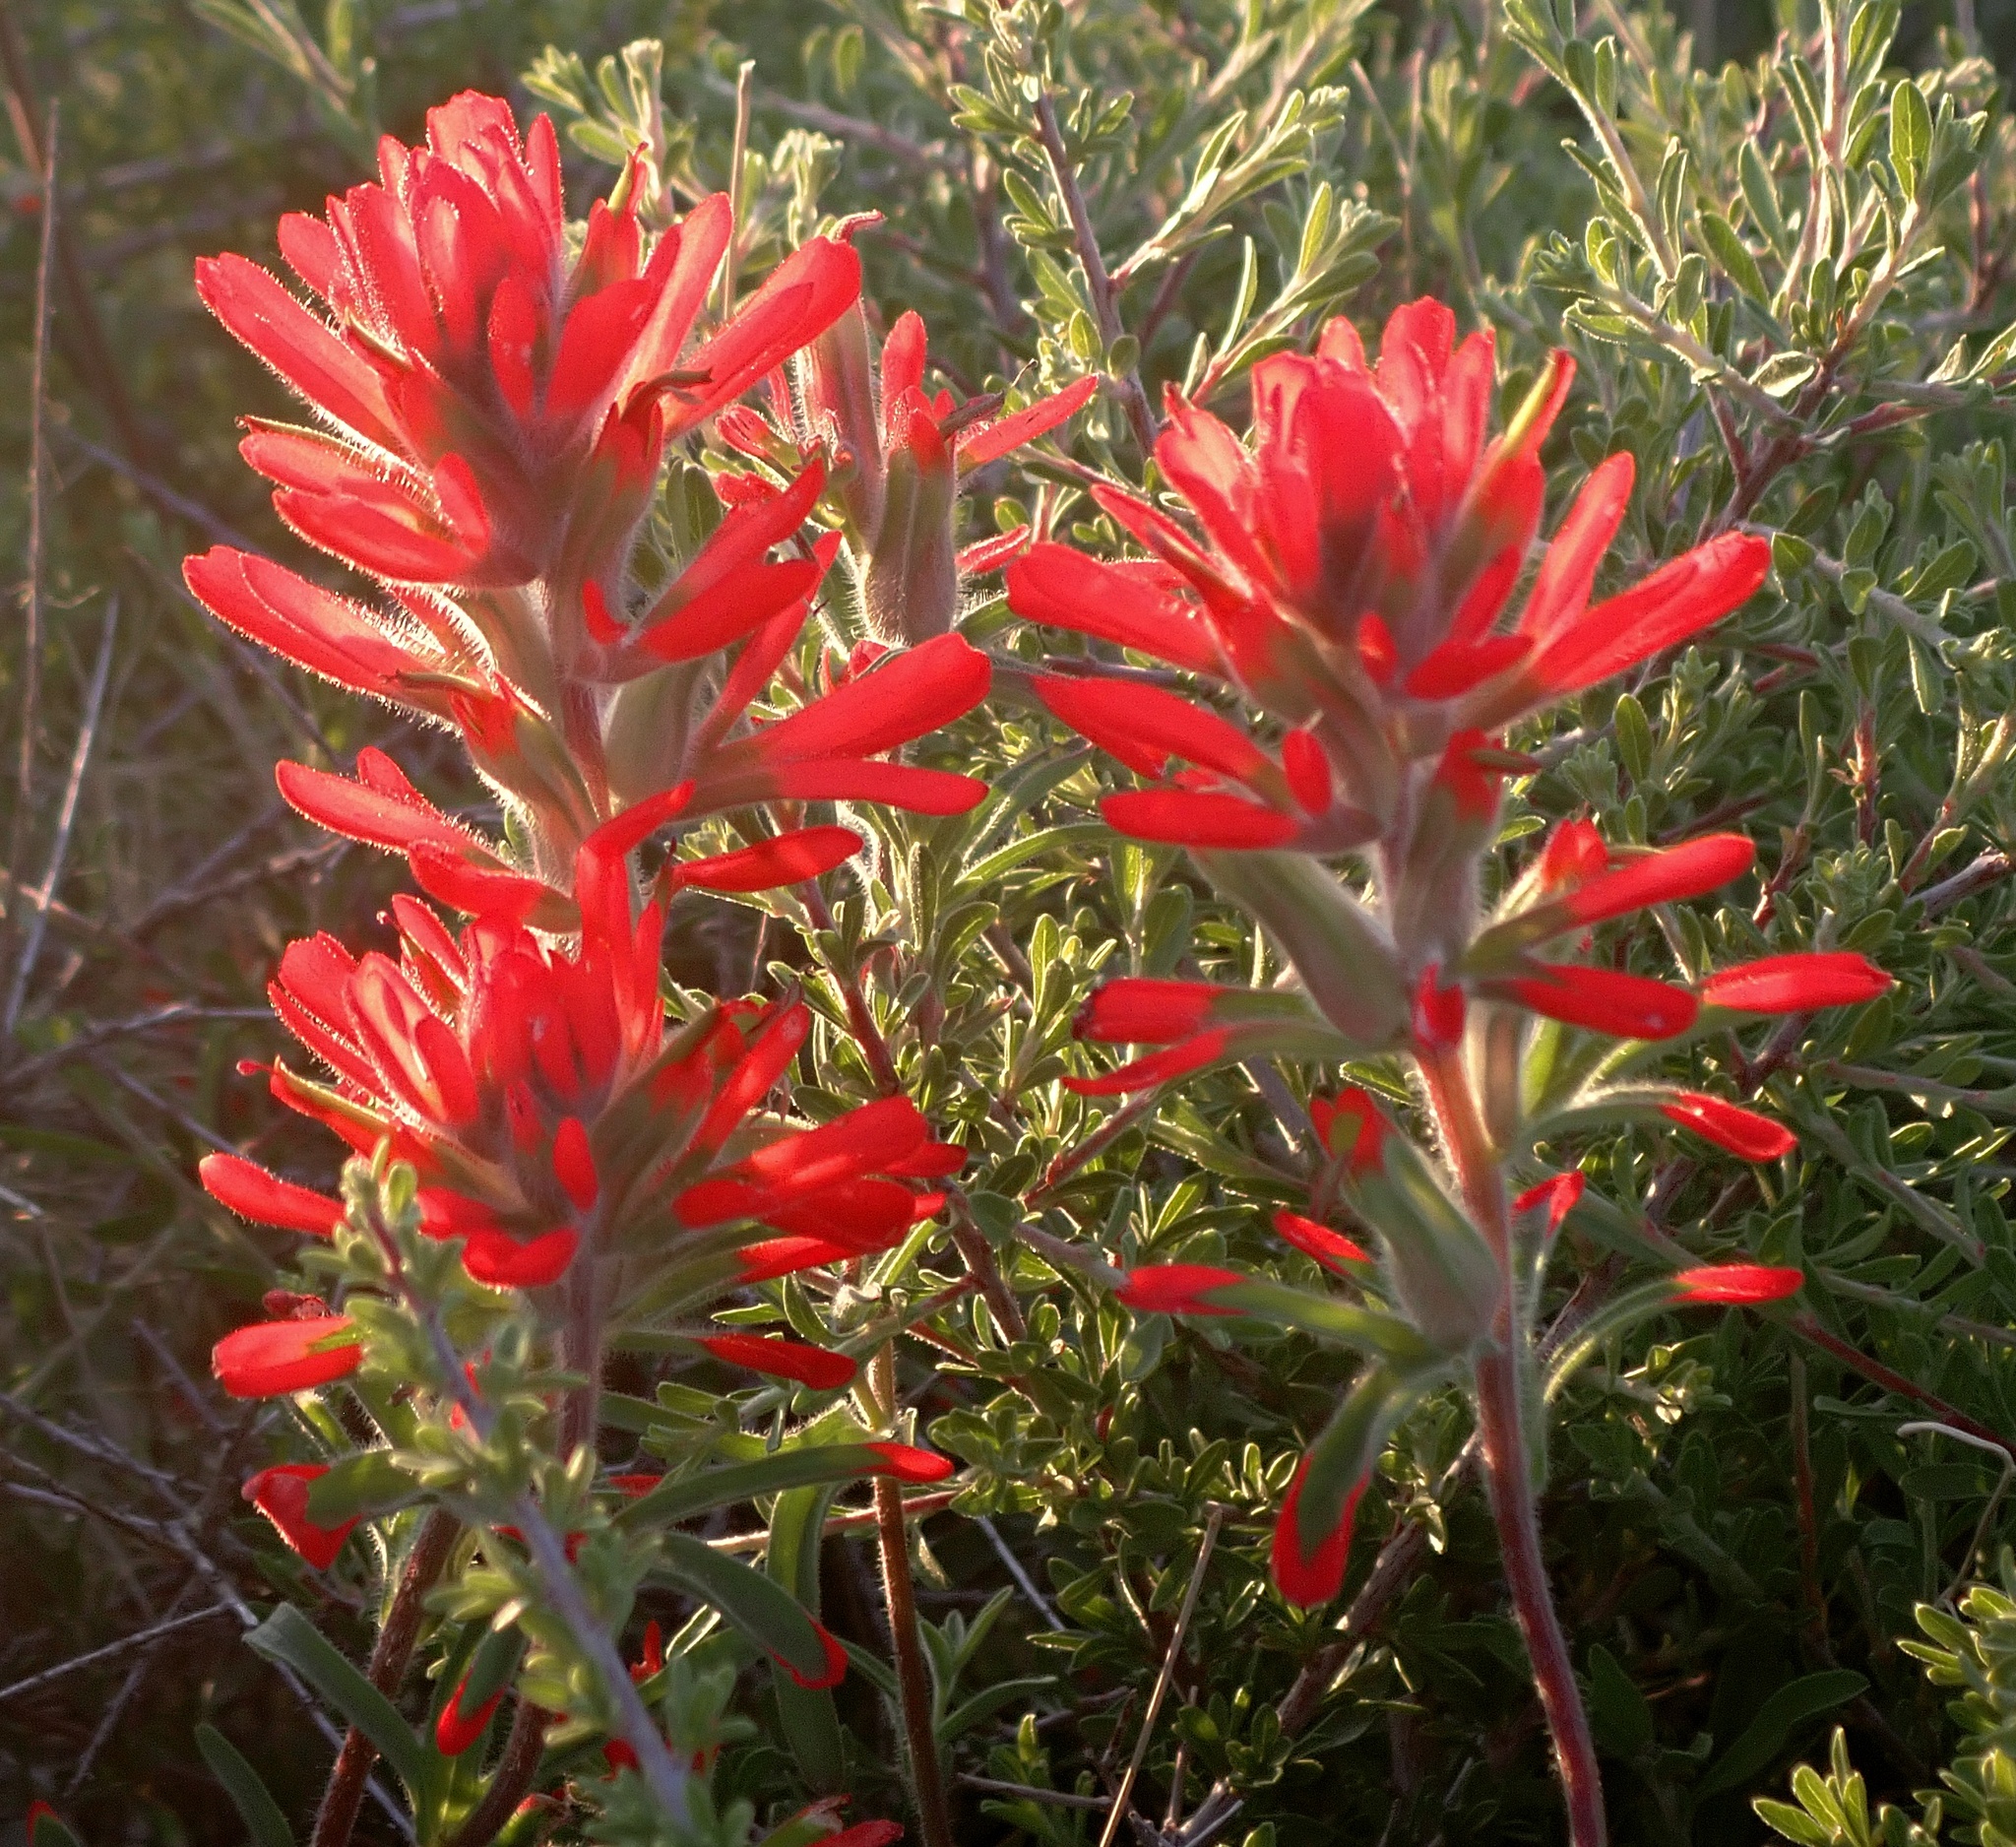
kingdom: Plantae
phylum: Tracheophyta
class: Magnoliopsida
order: Lamiales
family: Orobanchaceae
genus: Castilleja
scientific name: Castilleja chromosa
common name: Desert paintbrush
